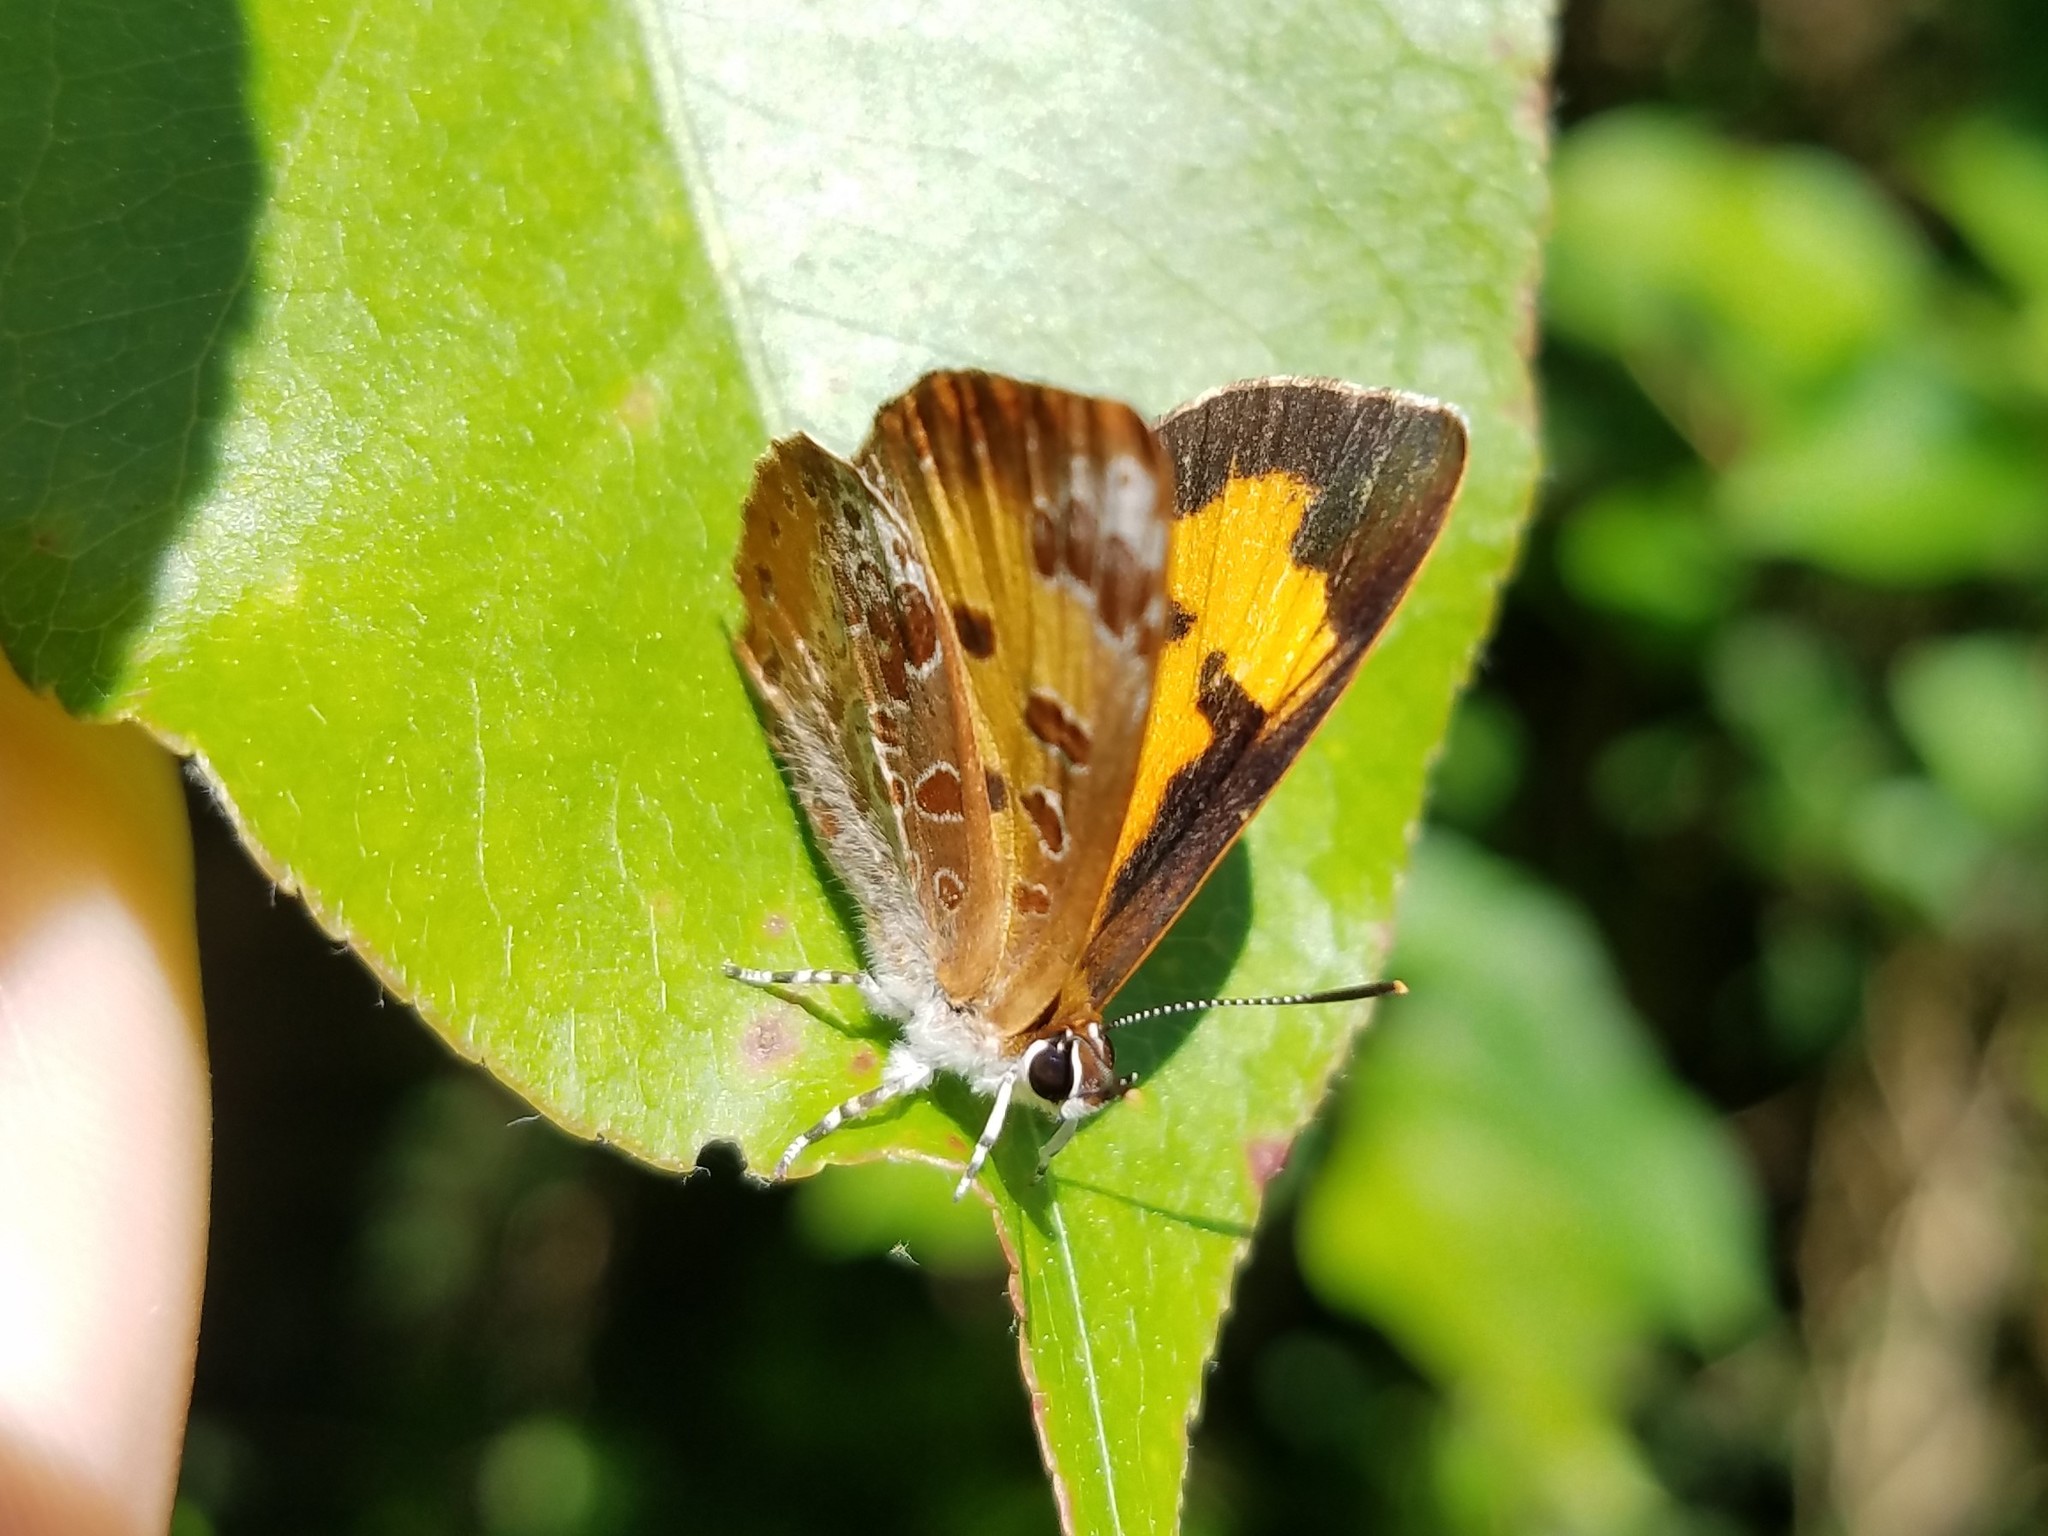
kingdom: Animalia
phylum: Arthropoda
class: Insecta
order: Lepidoptera
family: Lycaenidae
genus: Feniseca
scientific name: Feniseca tarquinius
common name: Harvester
